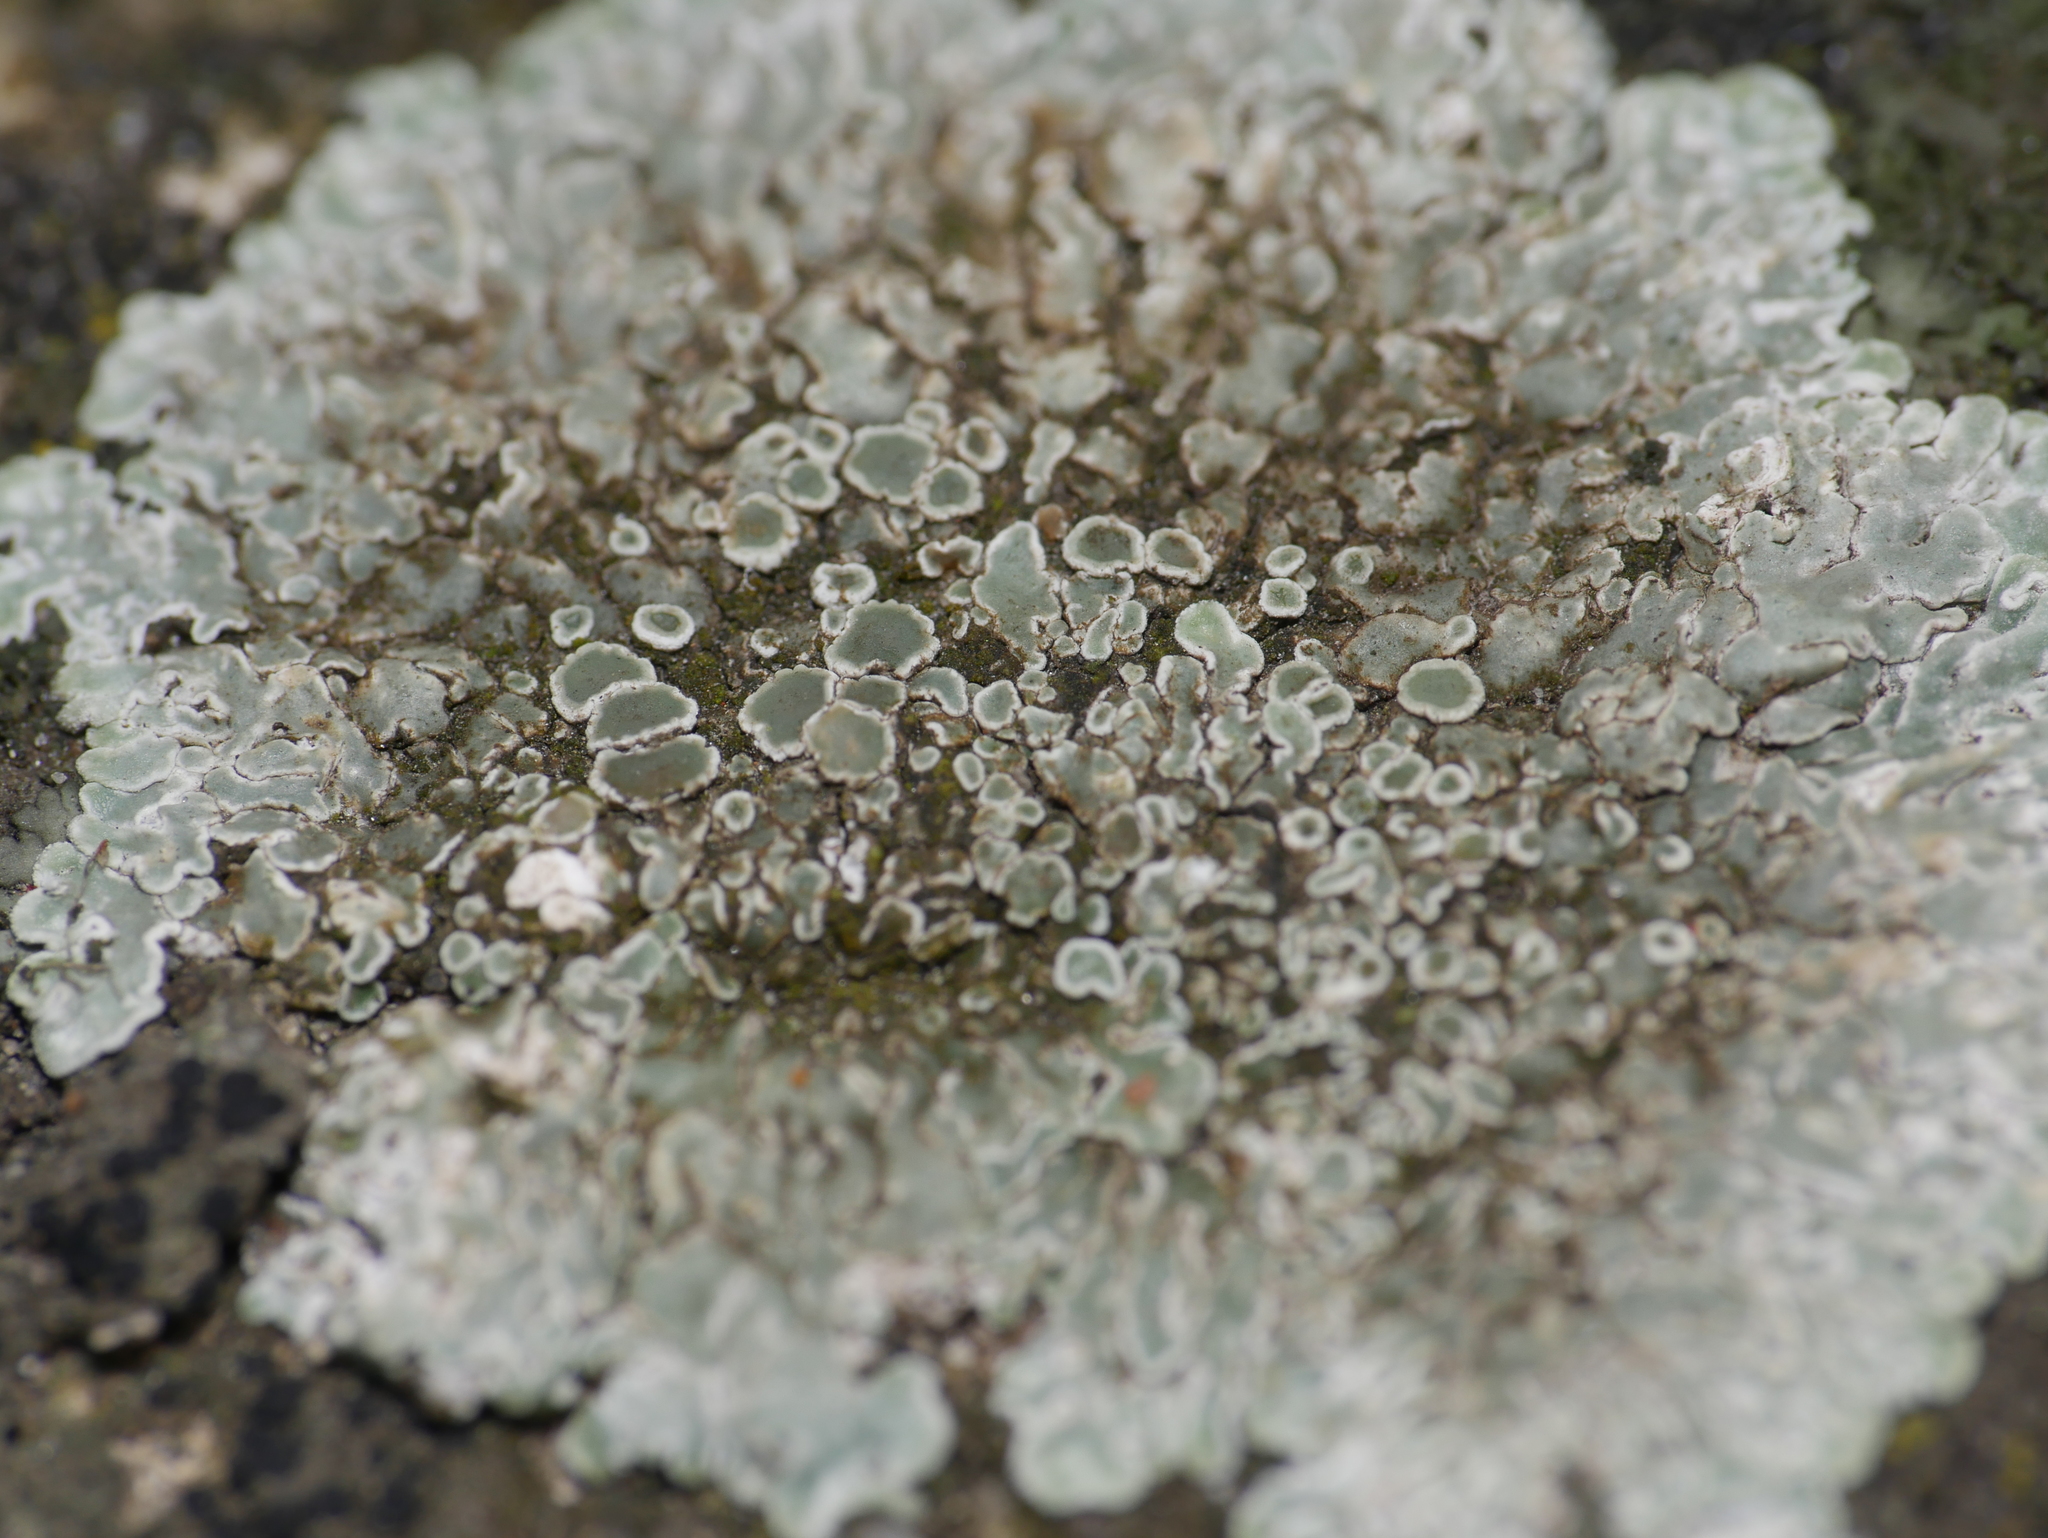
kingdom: Fungi
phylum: Ascomycota
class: Lecanoromycetes
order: Lecanorales
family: Lecanoraceae
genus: Protoparmeliopsis
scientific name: Protoparmeliopsis muralis
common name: Stonewall rim lichen
